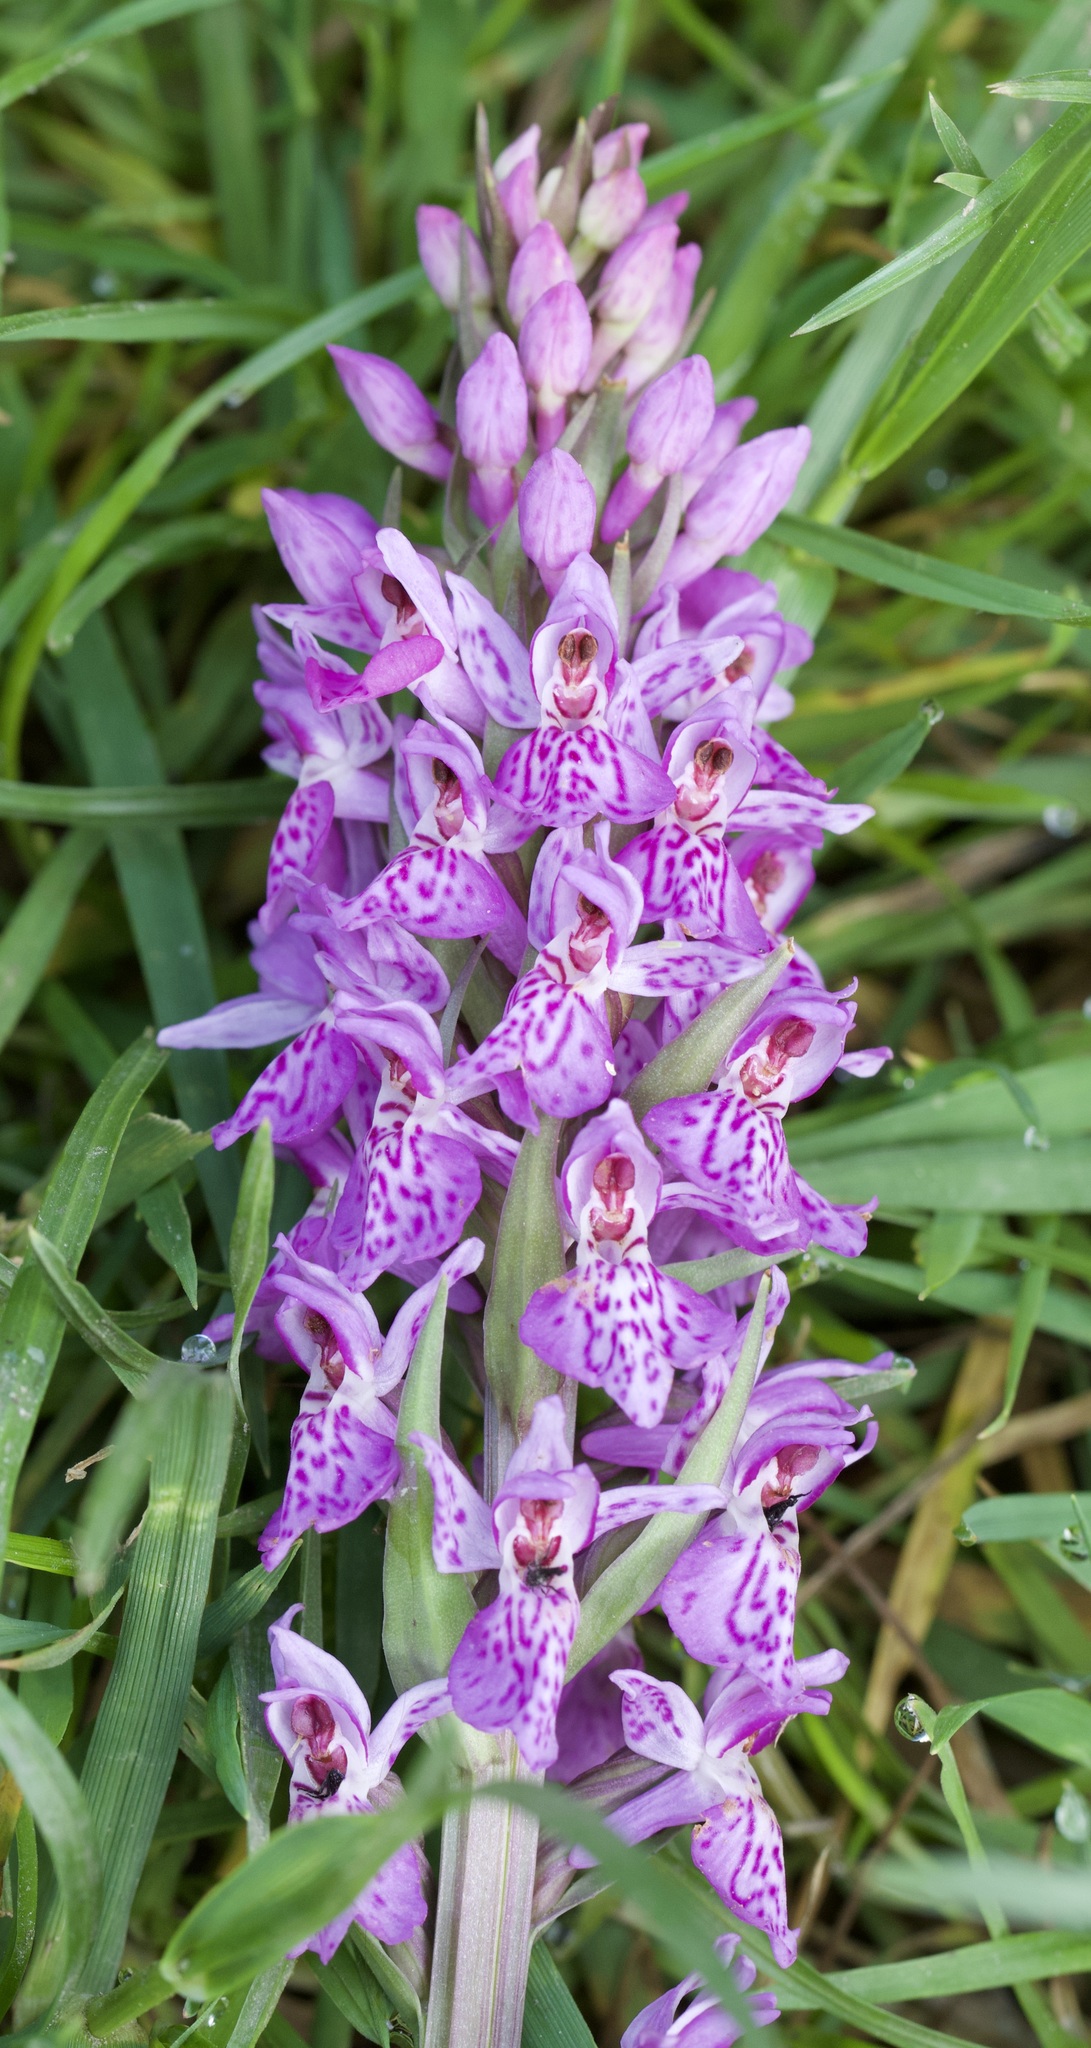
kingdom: Plantae
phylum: Tracheophyta
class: Liliopsida
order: Asparagales
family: Orchidaceae
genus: Dactylorhiza
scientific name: Dactylorhiza maculata
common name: Heath spotted-orchid
